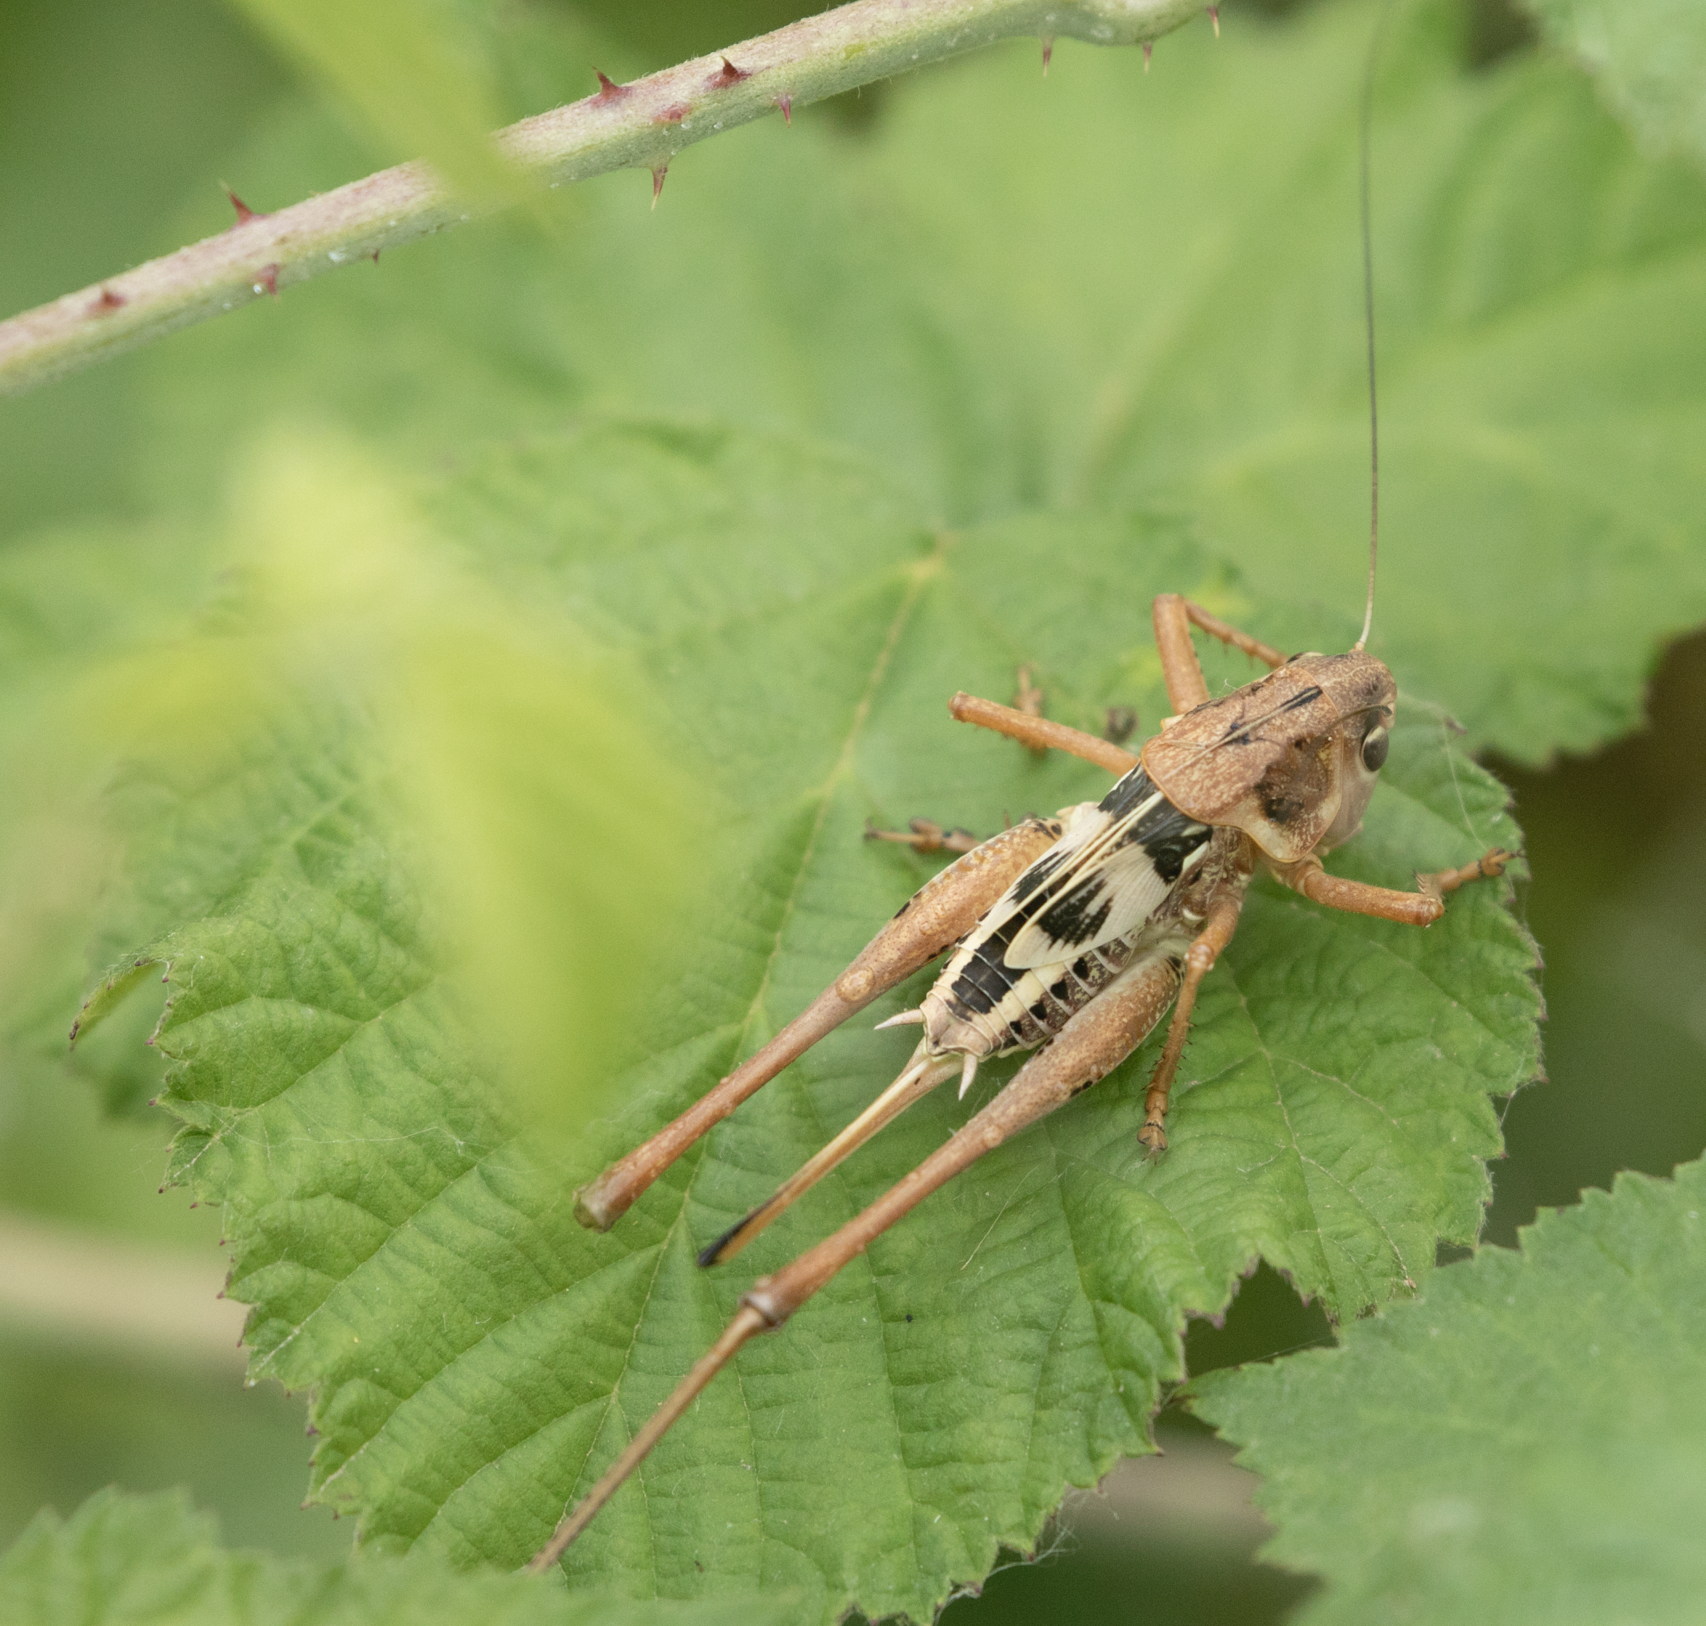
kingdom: Animalia
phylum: Arthropoda
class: Insecta
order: Orthoptera
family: Tettigoniidae
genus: Decticus
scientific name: Decticus albifrons
